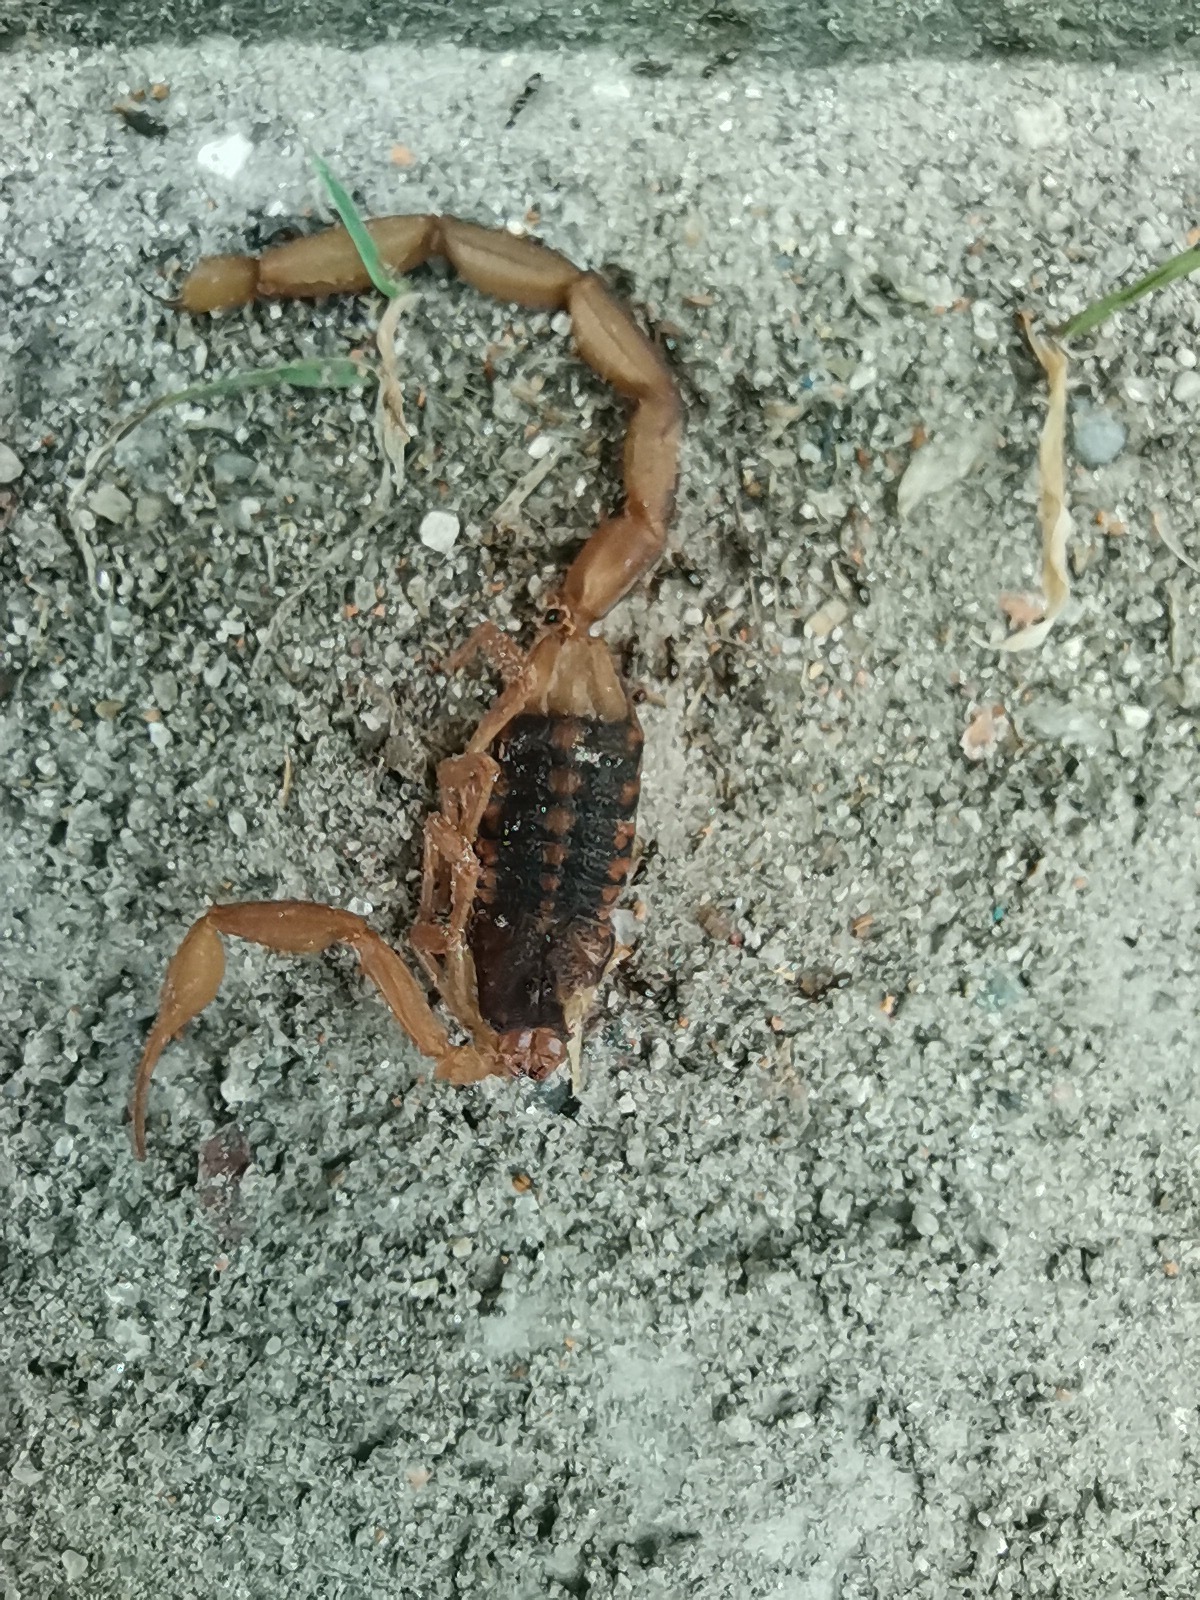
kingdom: Animalia
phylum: Arthropoda
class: Arachnida
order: Scorpiones
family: Buthidae
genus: Centruroides
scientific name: Centruroides ornatus
